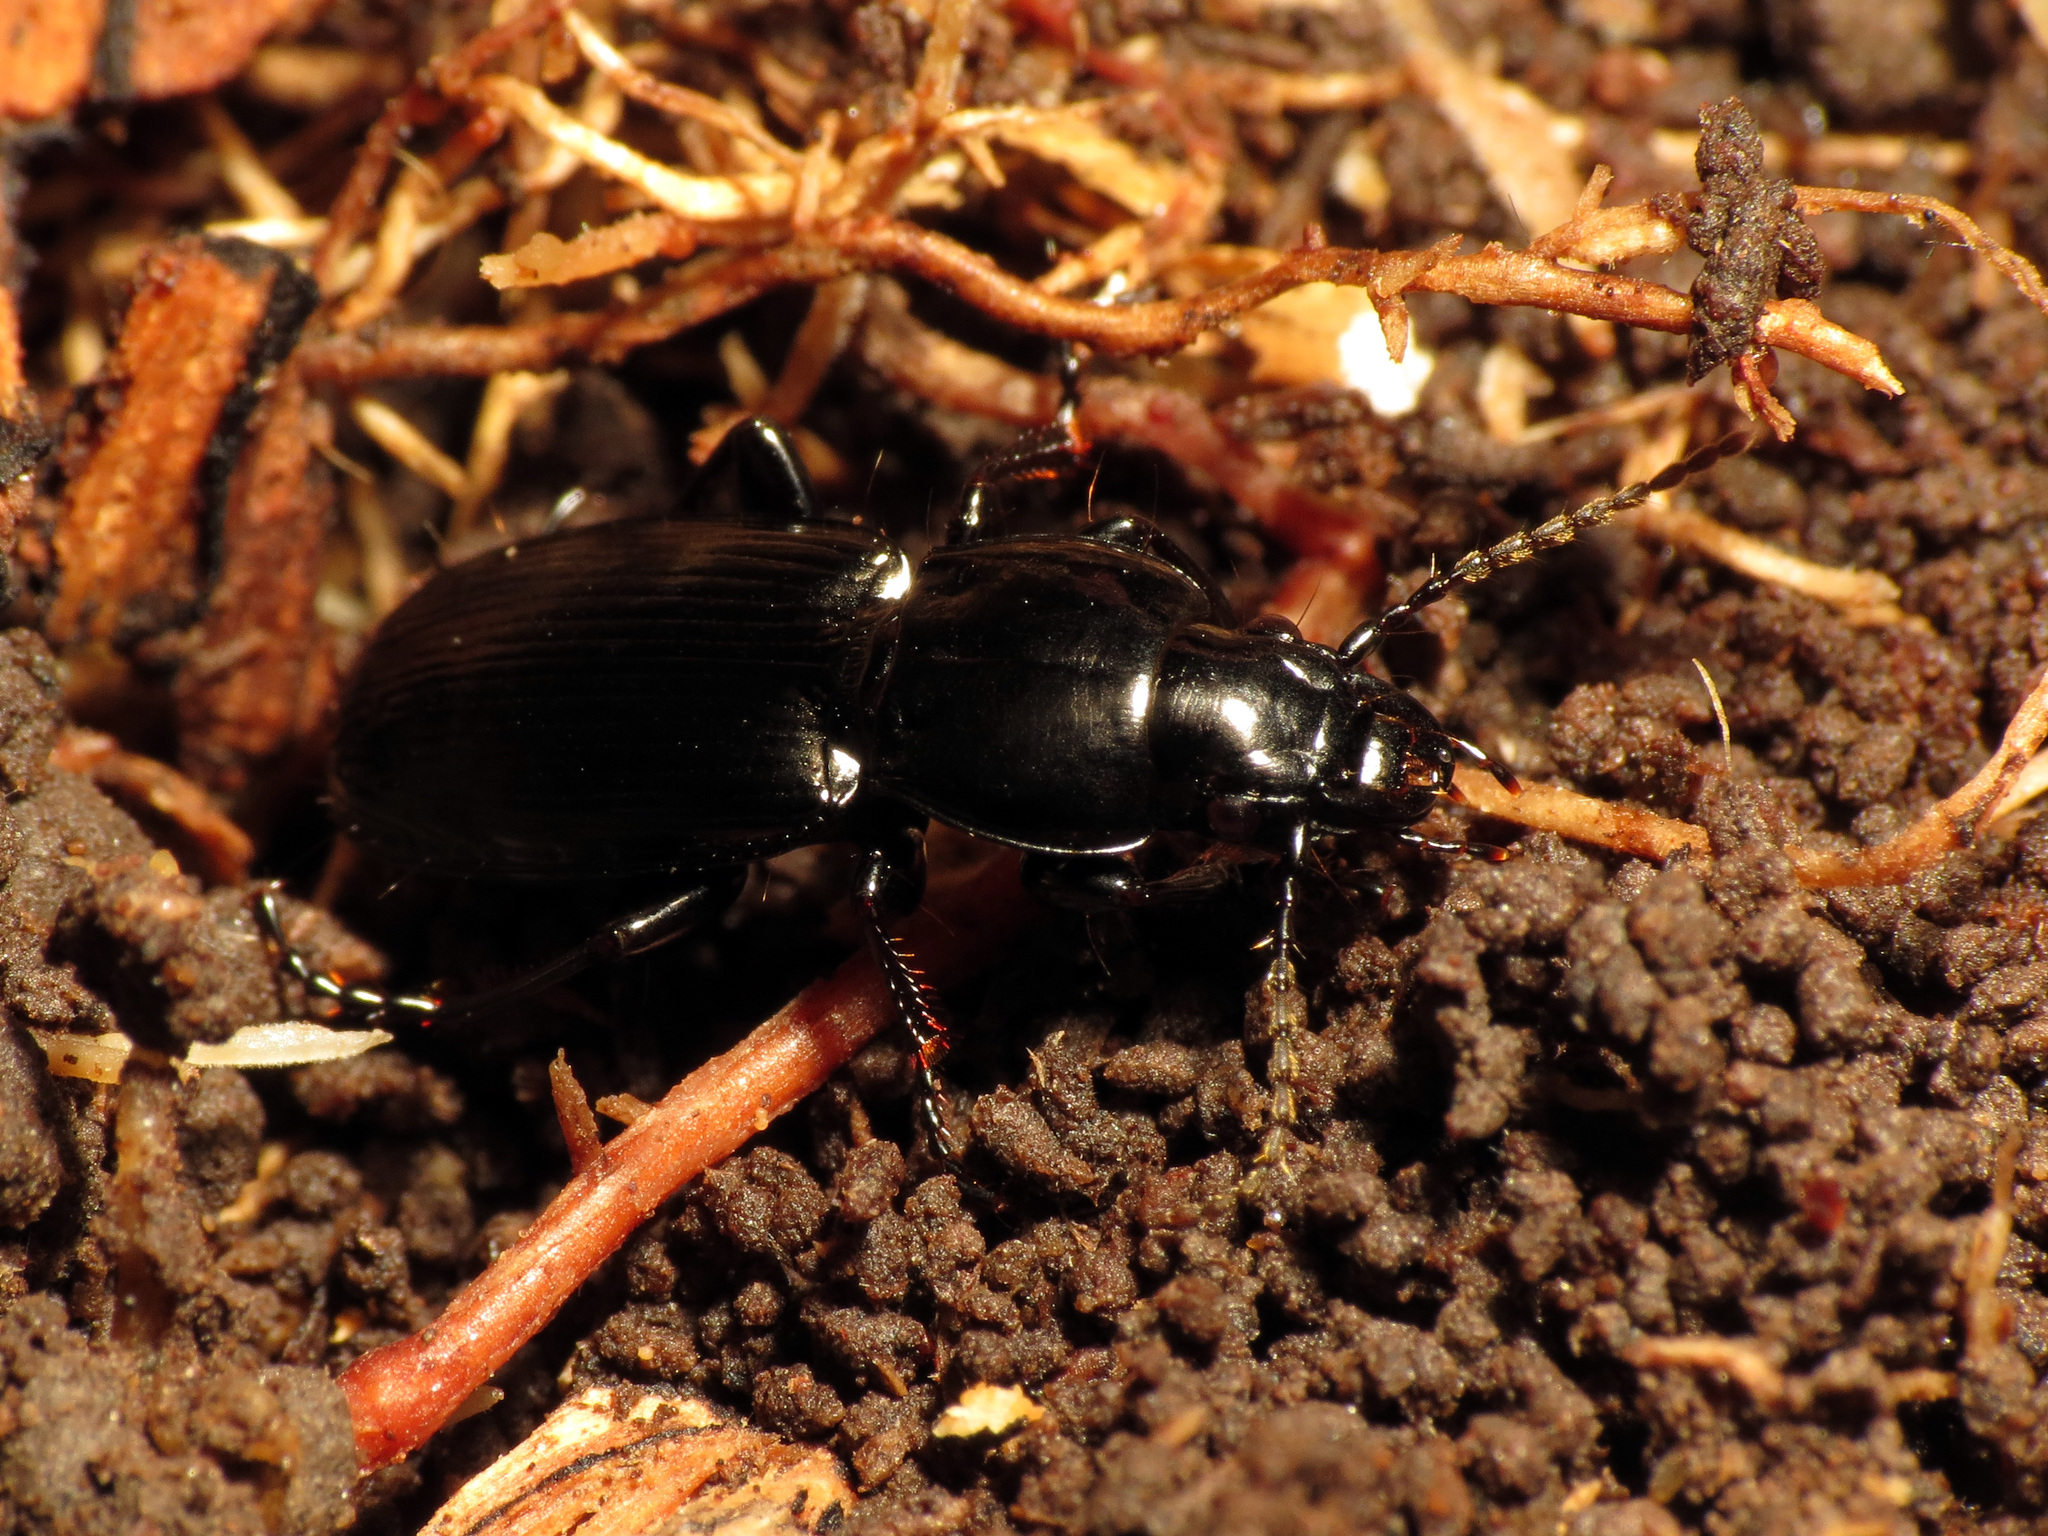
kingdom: Animalia
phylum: Arthropoda
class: Insecta
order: Coleoptera
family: Carabidae
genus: Oregus
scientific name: Oregus aereus
